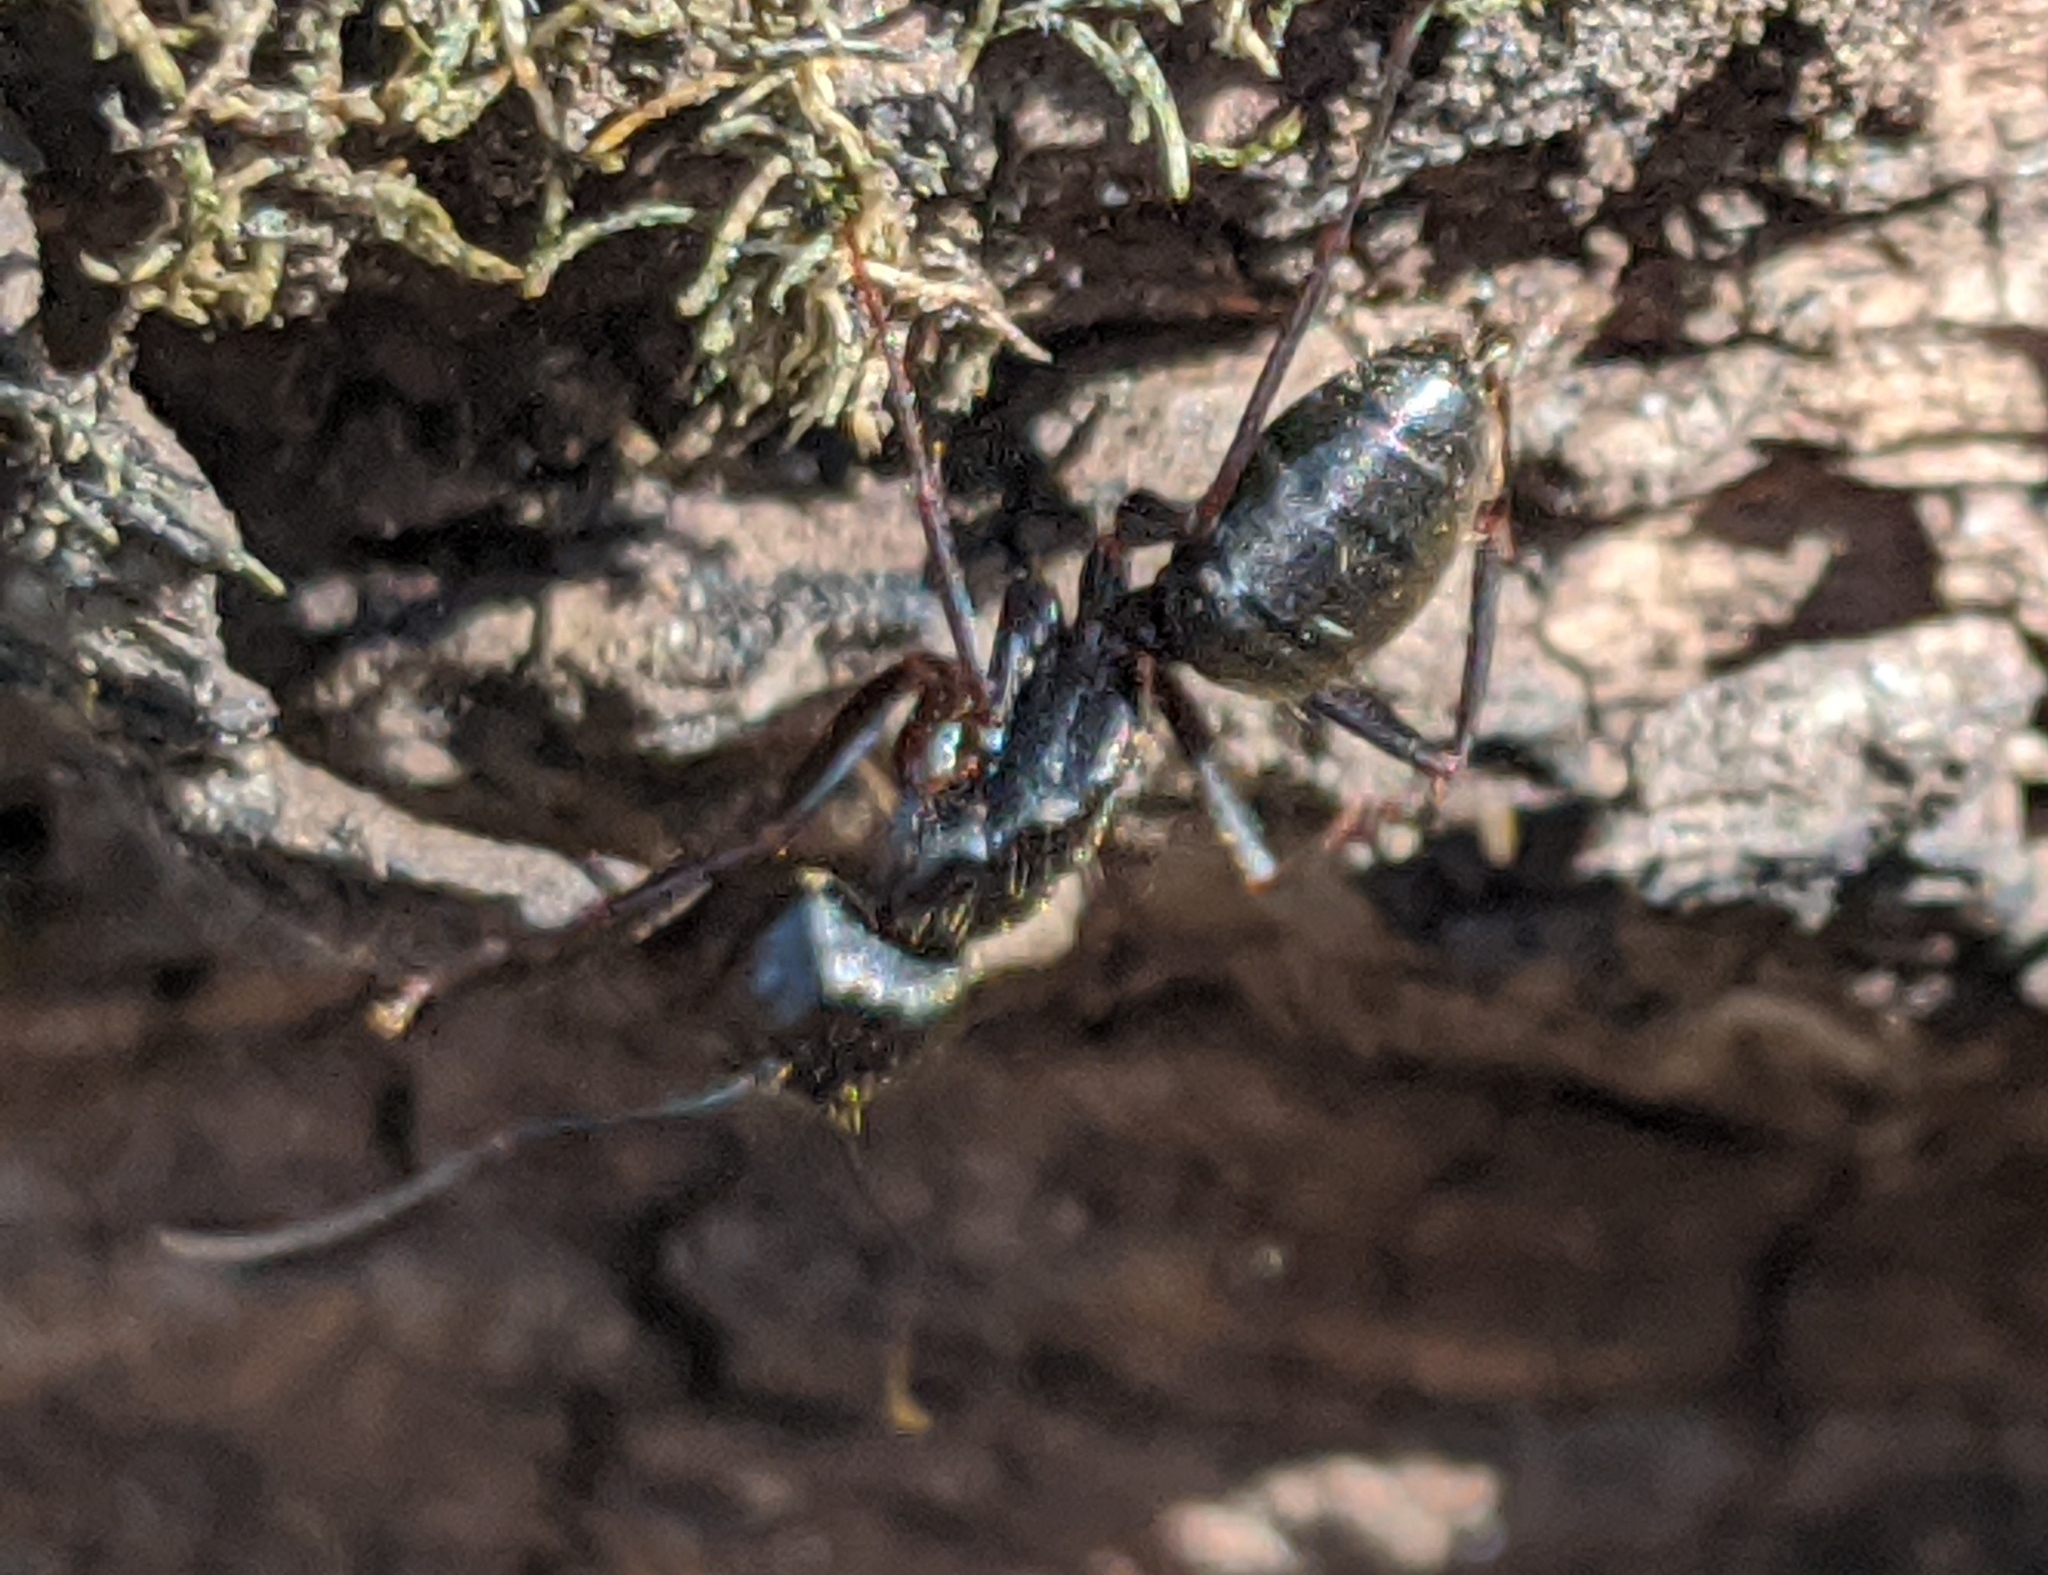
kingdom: Animalia
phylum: Arthropoda
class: Insecta
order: Hymenoptera
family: Formicidae
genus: Camponotus
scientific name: Camponotus pennsylvanicus
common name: Black carpenter ant
